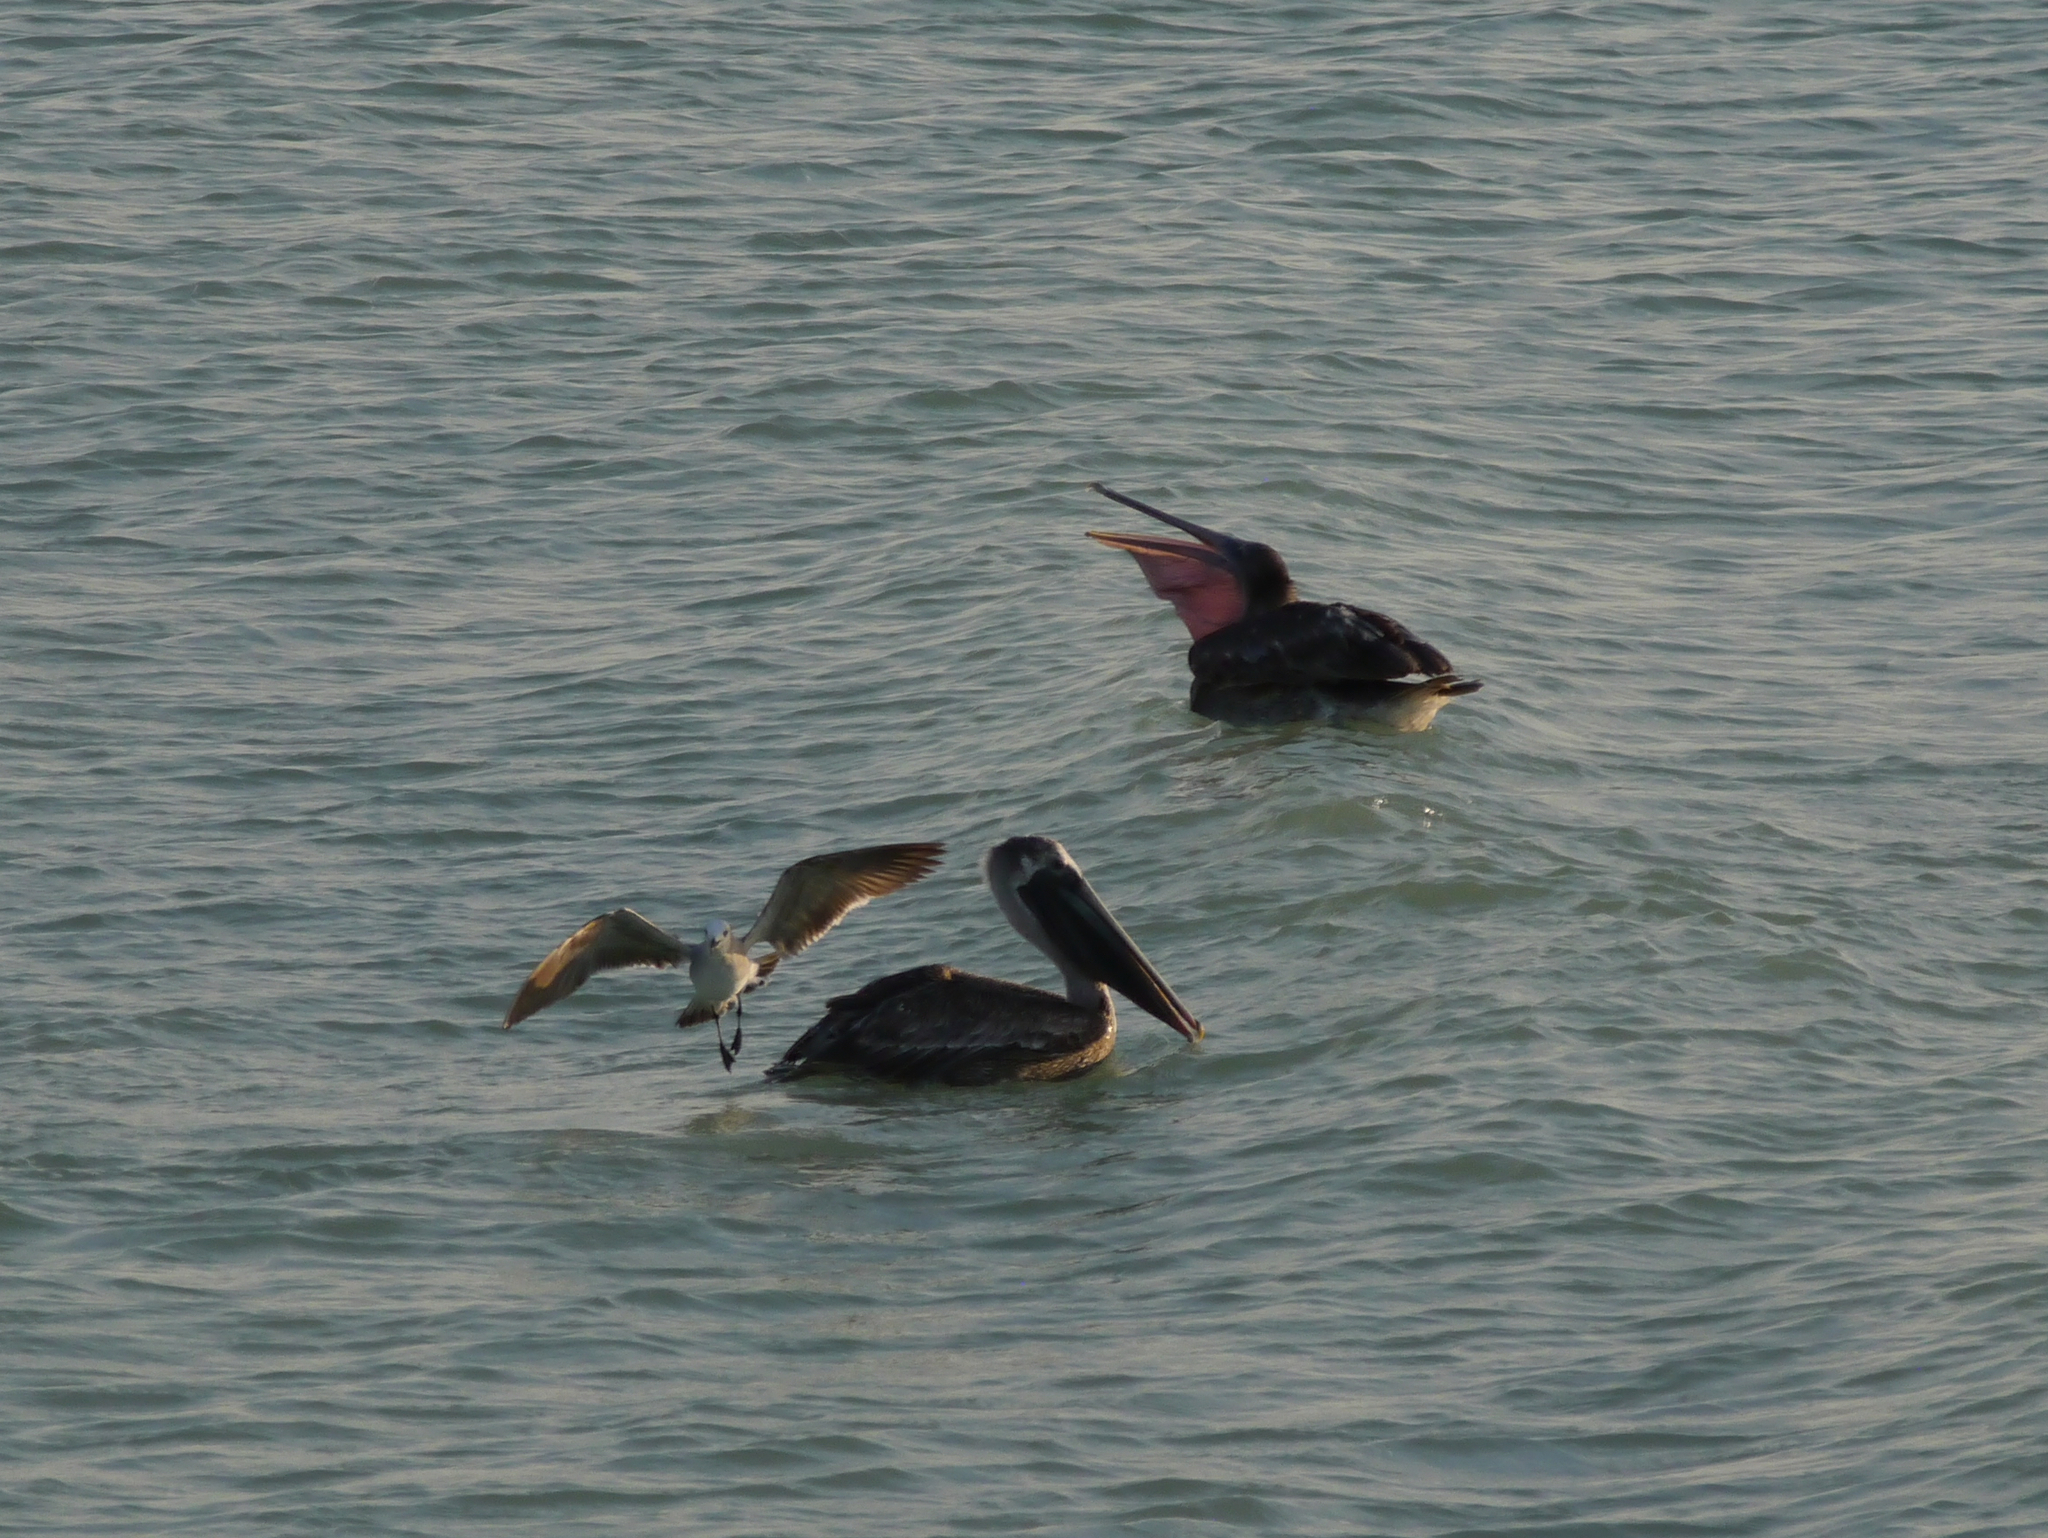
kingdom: Animalia
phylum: Chordata
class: Aves
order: Pelecaniformes
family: Pelecanidae
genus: Pelecanus
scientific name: Pelecanus occidentalis
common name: Brown pelican
